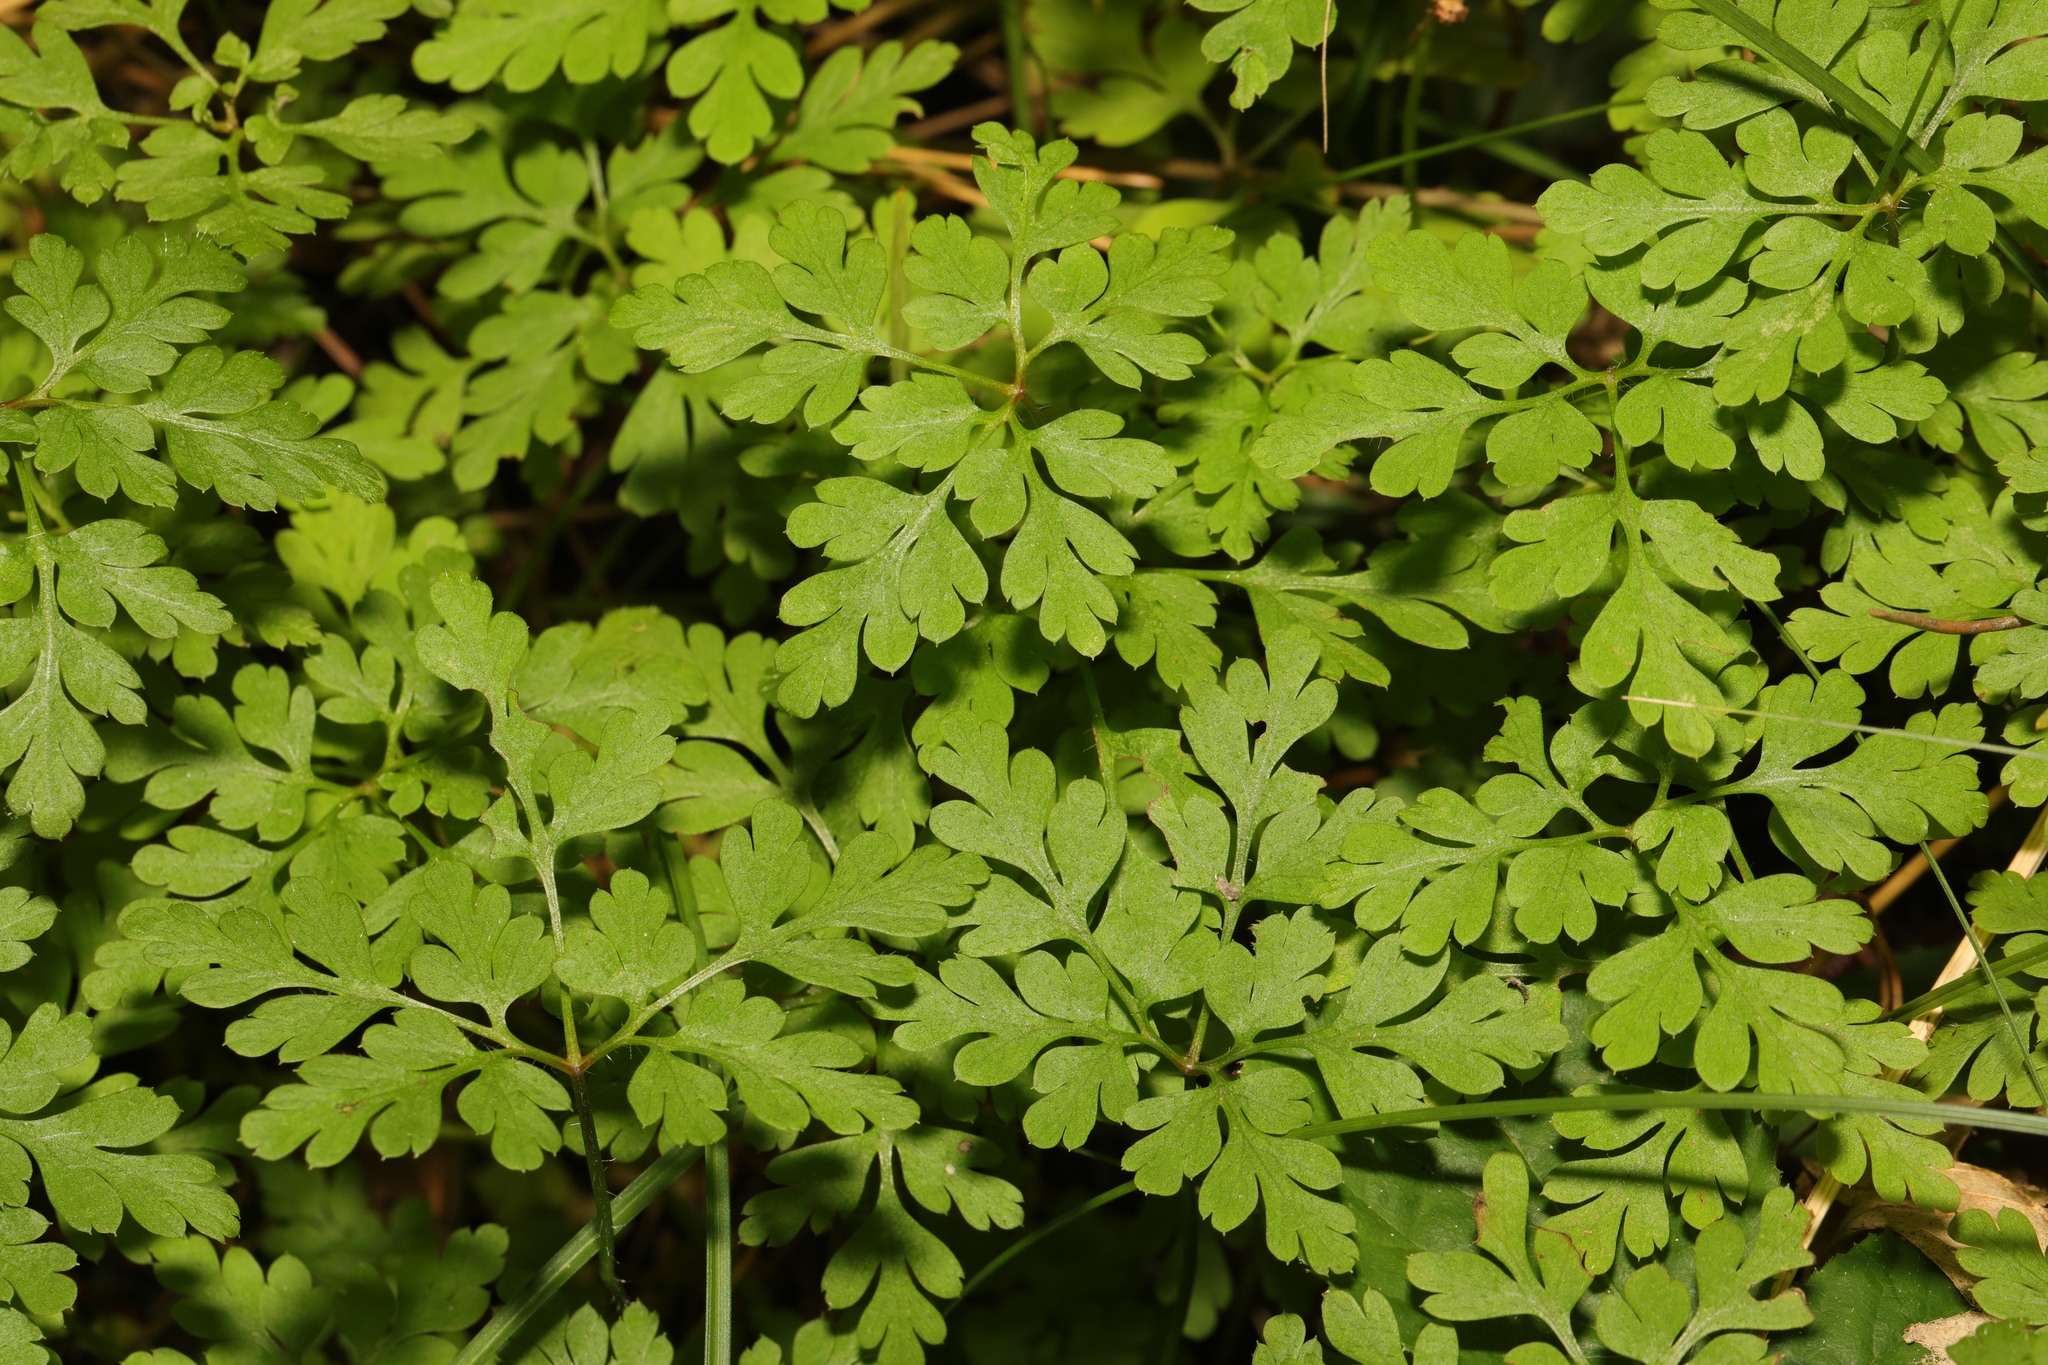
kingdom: Plantae
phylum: Tracheophyta
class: Magnoliopsida
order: Geraniales
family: Geraniaceae
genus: Geranium
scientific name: Geranium robertianum
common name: Herb-robert
